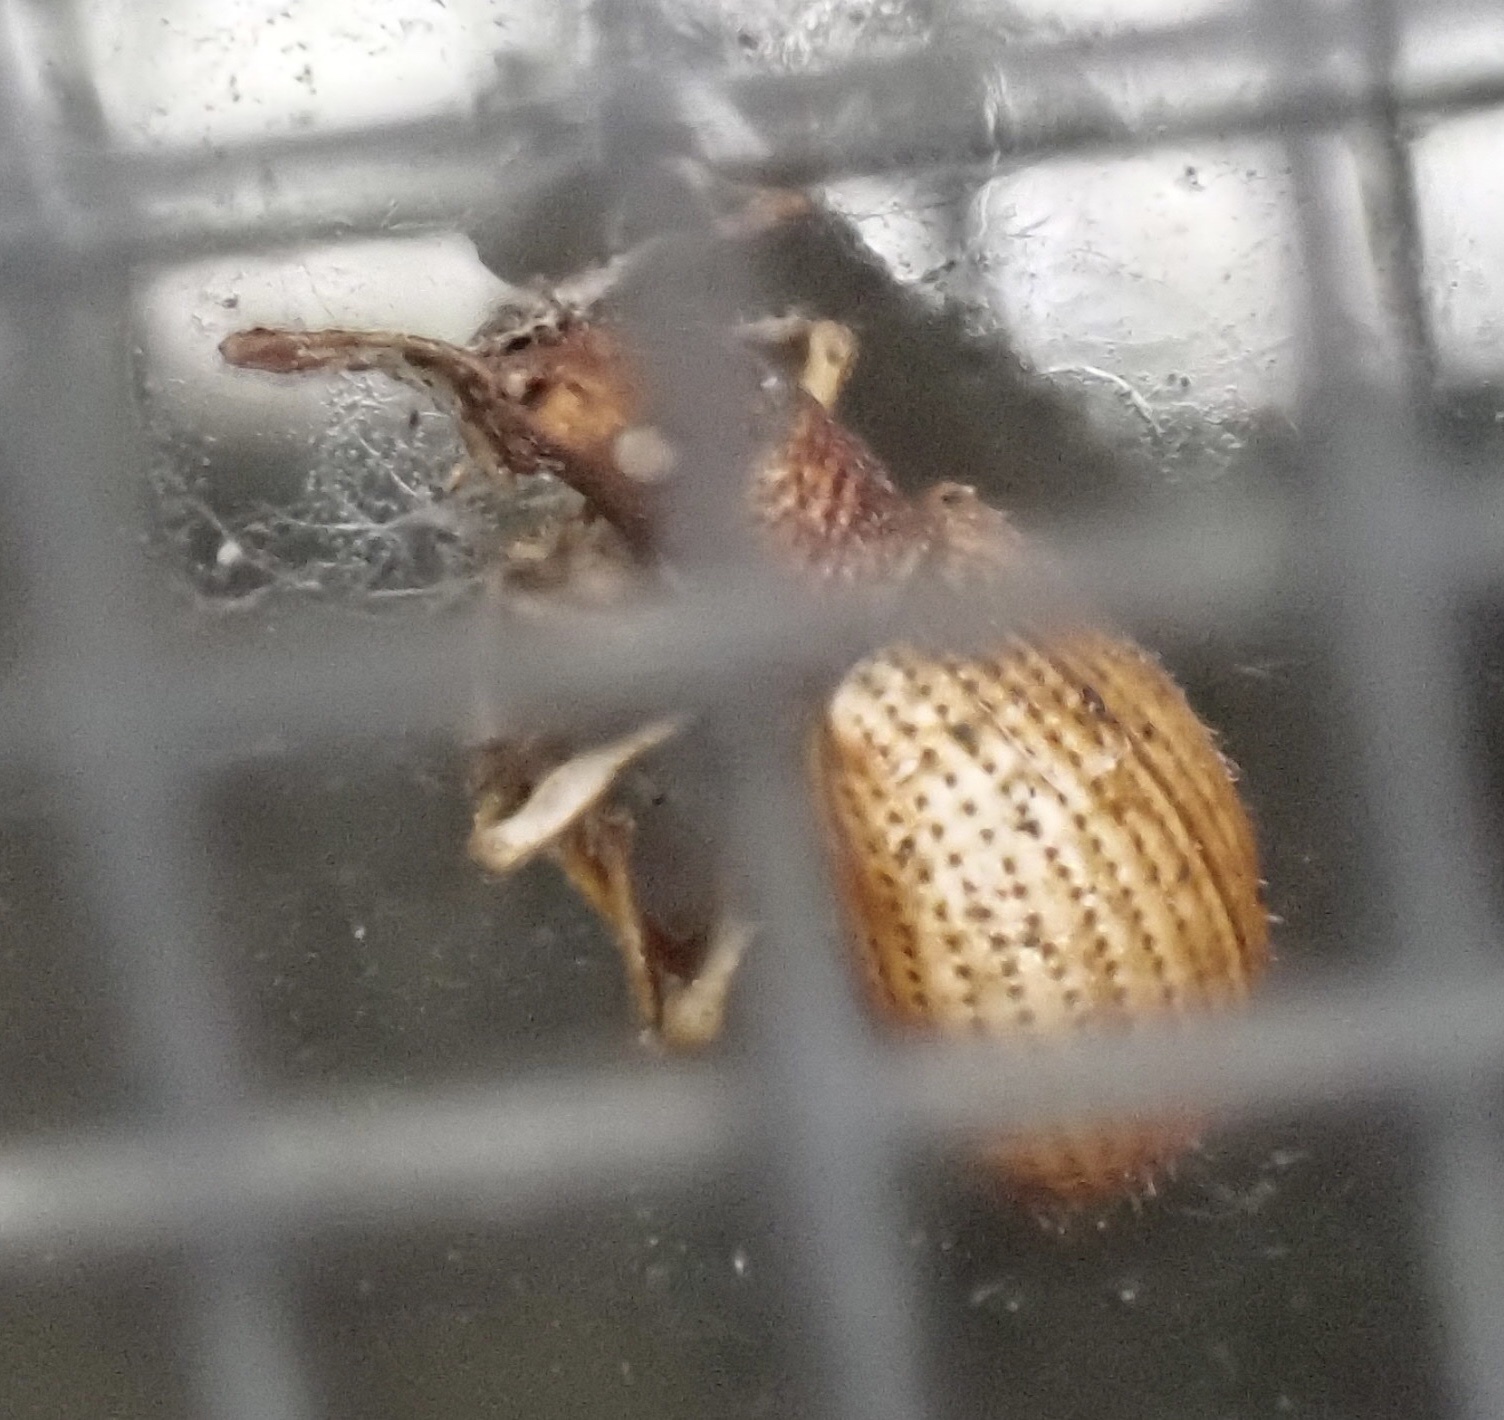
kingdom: Animalia
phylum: Arthropoda
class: Insecta
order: Coleoptera
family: Curculionidae
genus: Myosides
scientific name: Myosides seriehispidus
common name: Broadnosed weevil
